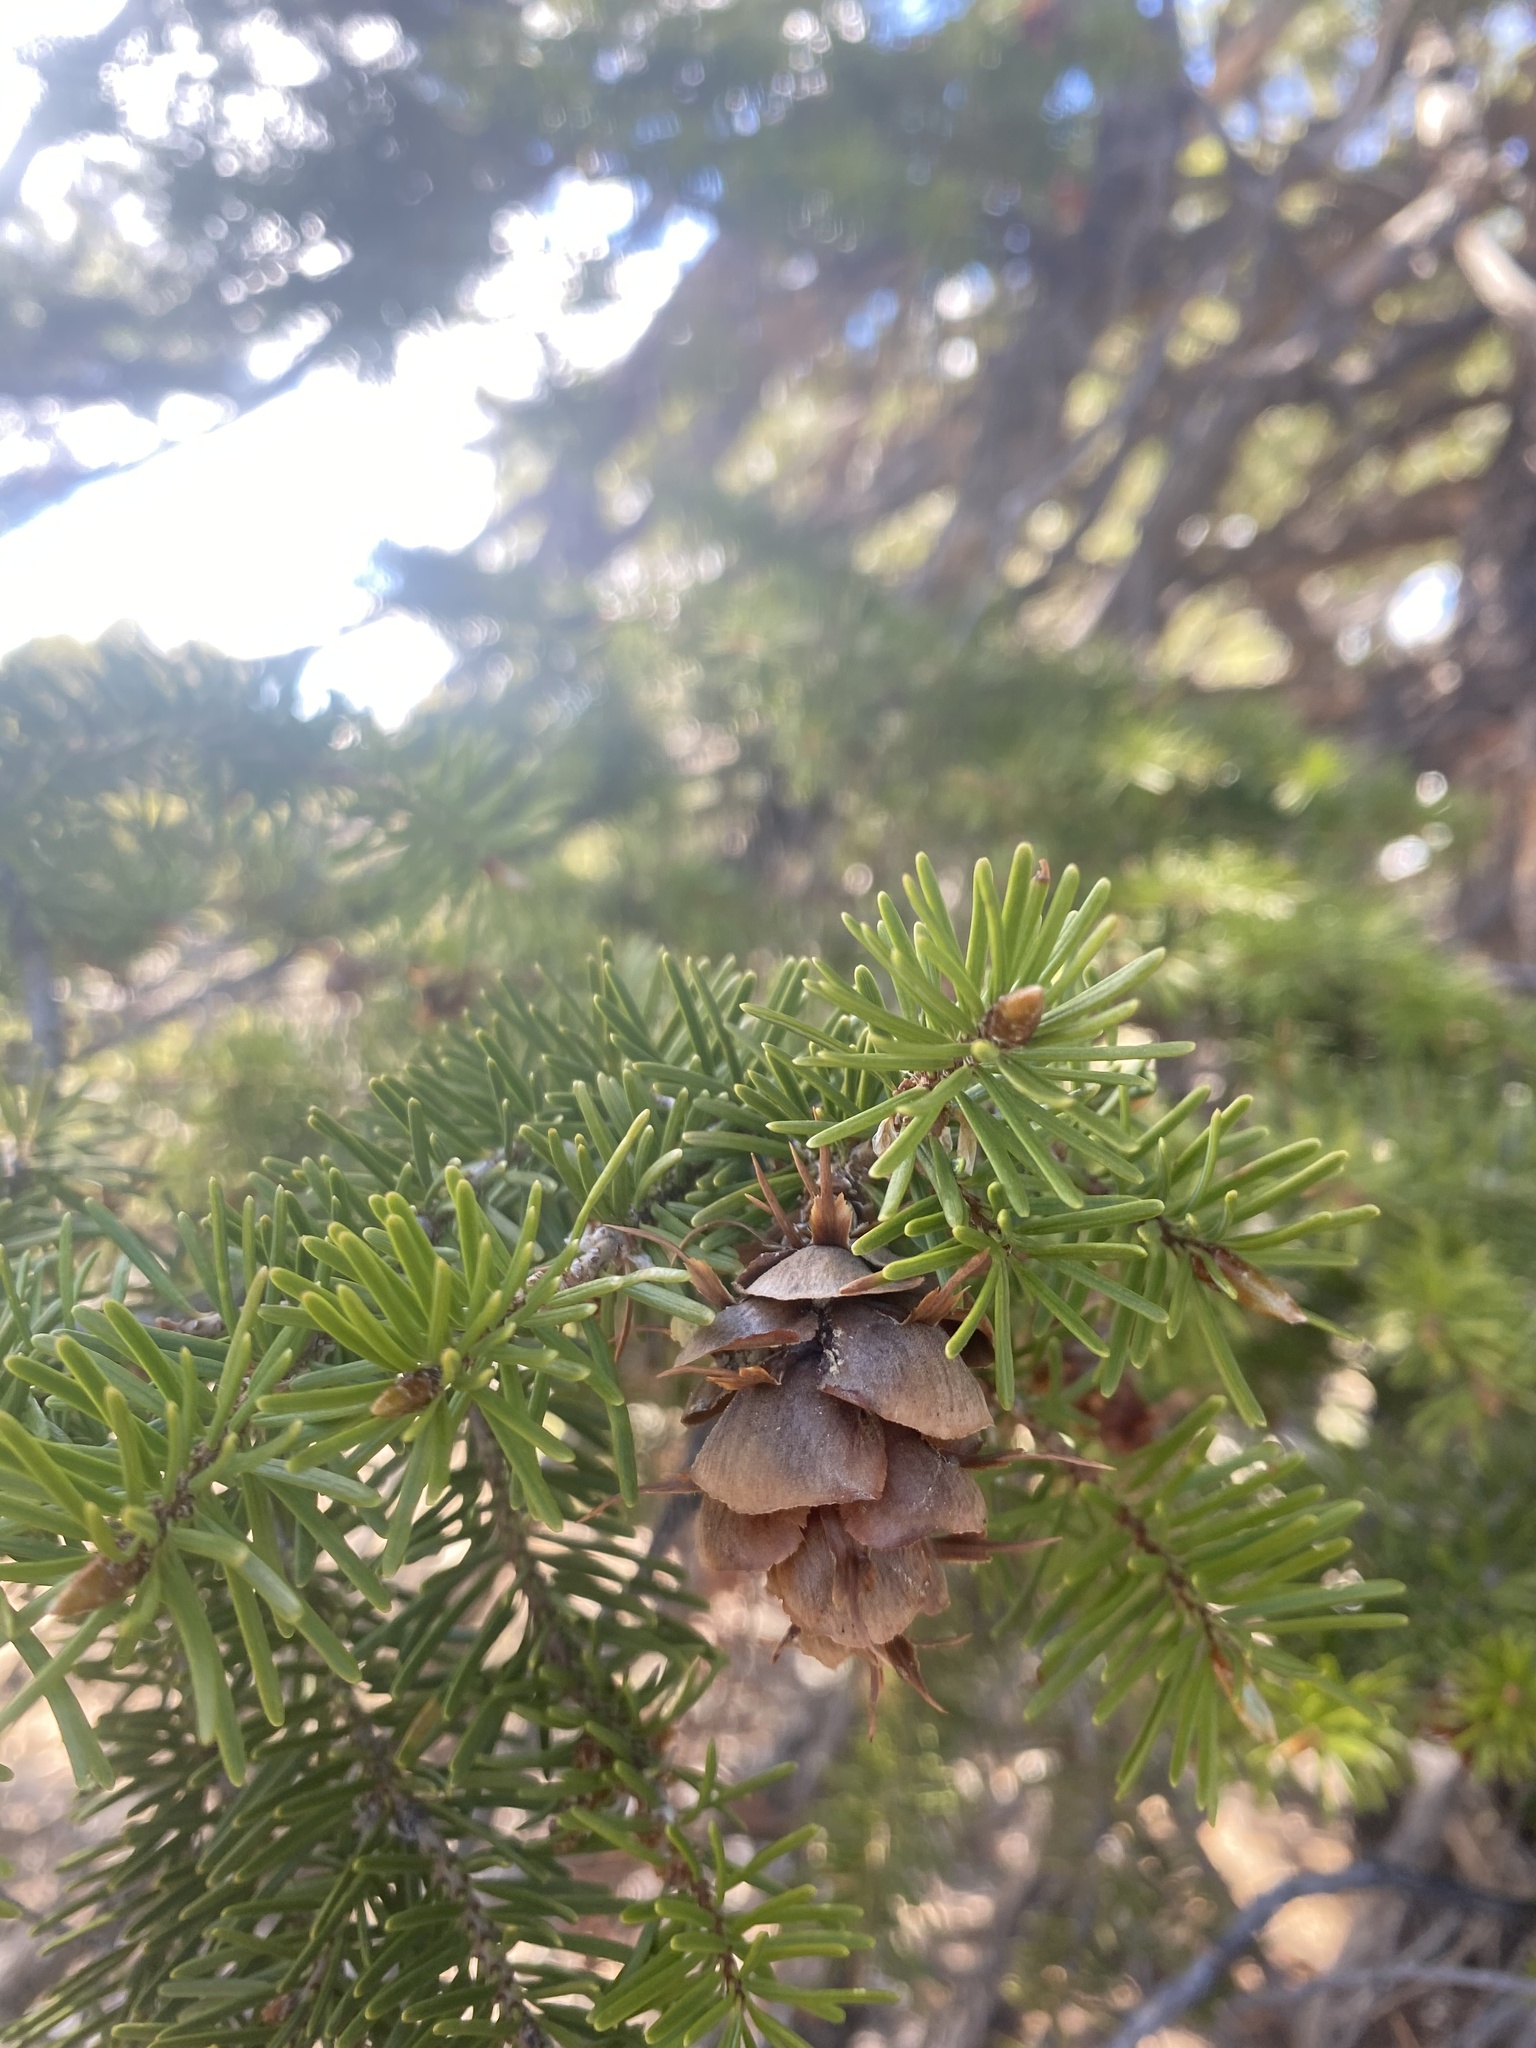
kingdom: Plantae
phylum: Tracheophyta
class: Pinopsida
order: Pinales
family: Pinaceae
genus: Pseudotsuga
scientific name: Pseudotsuga menziesii
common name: Douglas fir
